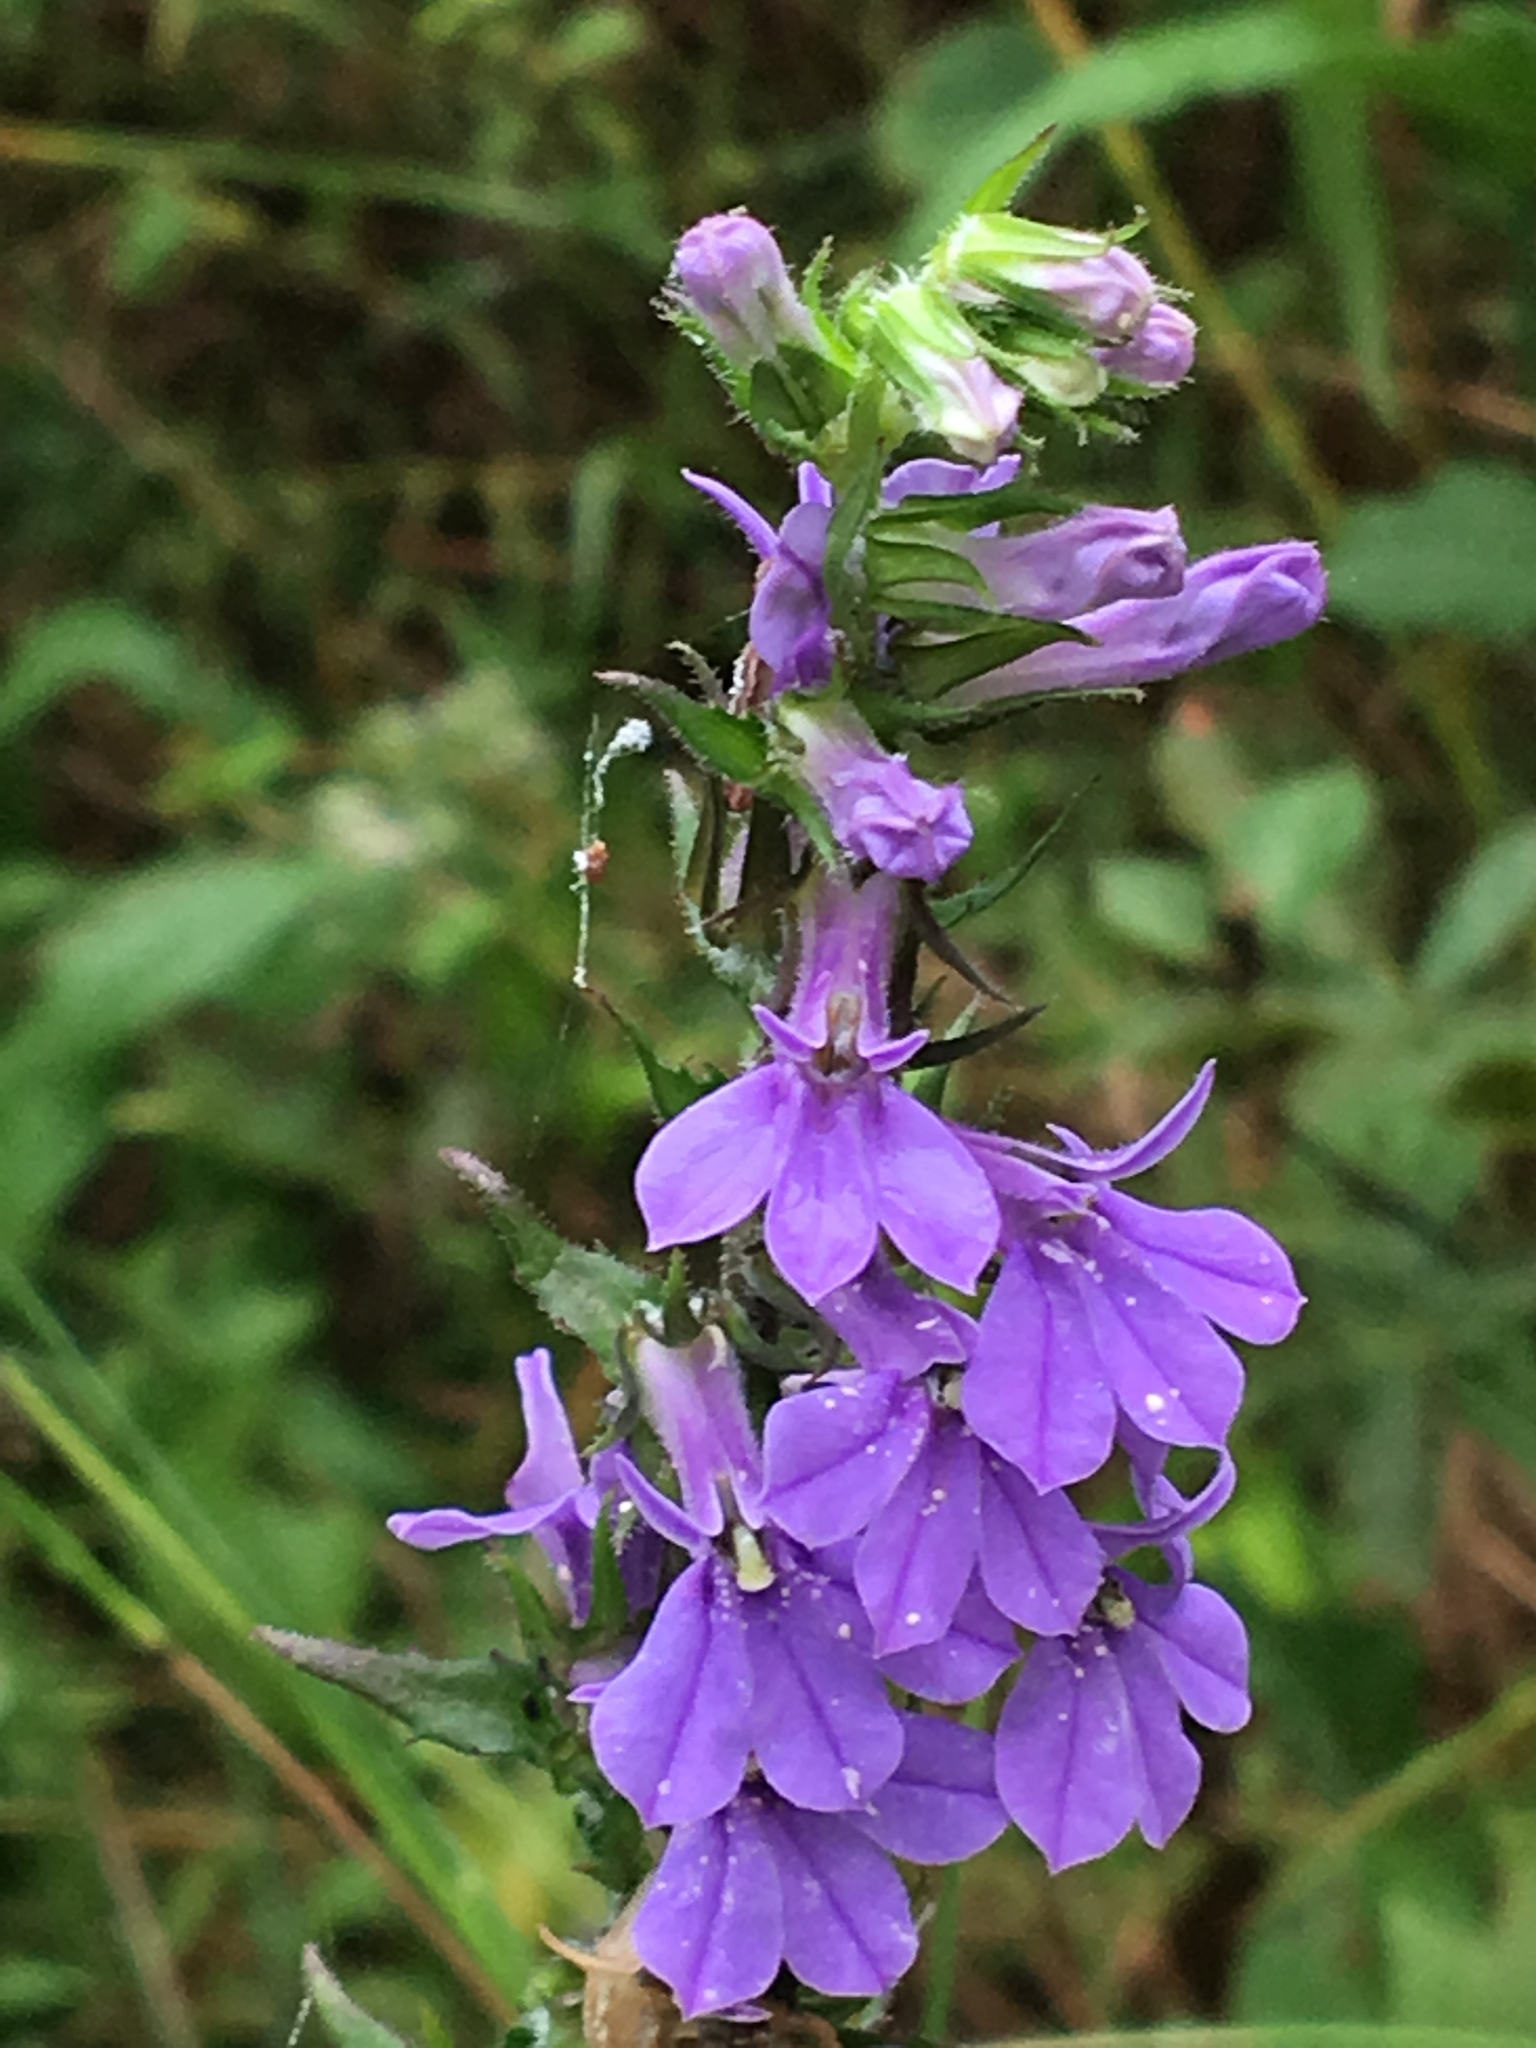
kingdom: Plantae
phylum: Tracheophyta
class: Magnoliopsida
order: Asterales
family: Campanulaceae
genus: Lobelia
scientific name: Lobelia puberula
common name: Purple dewdrop
